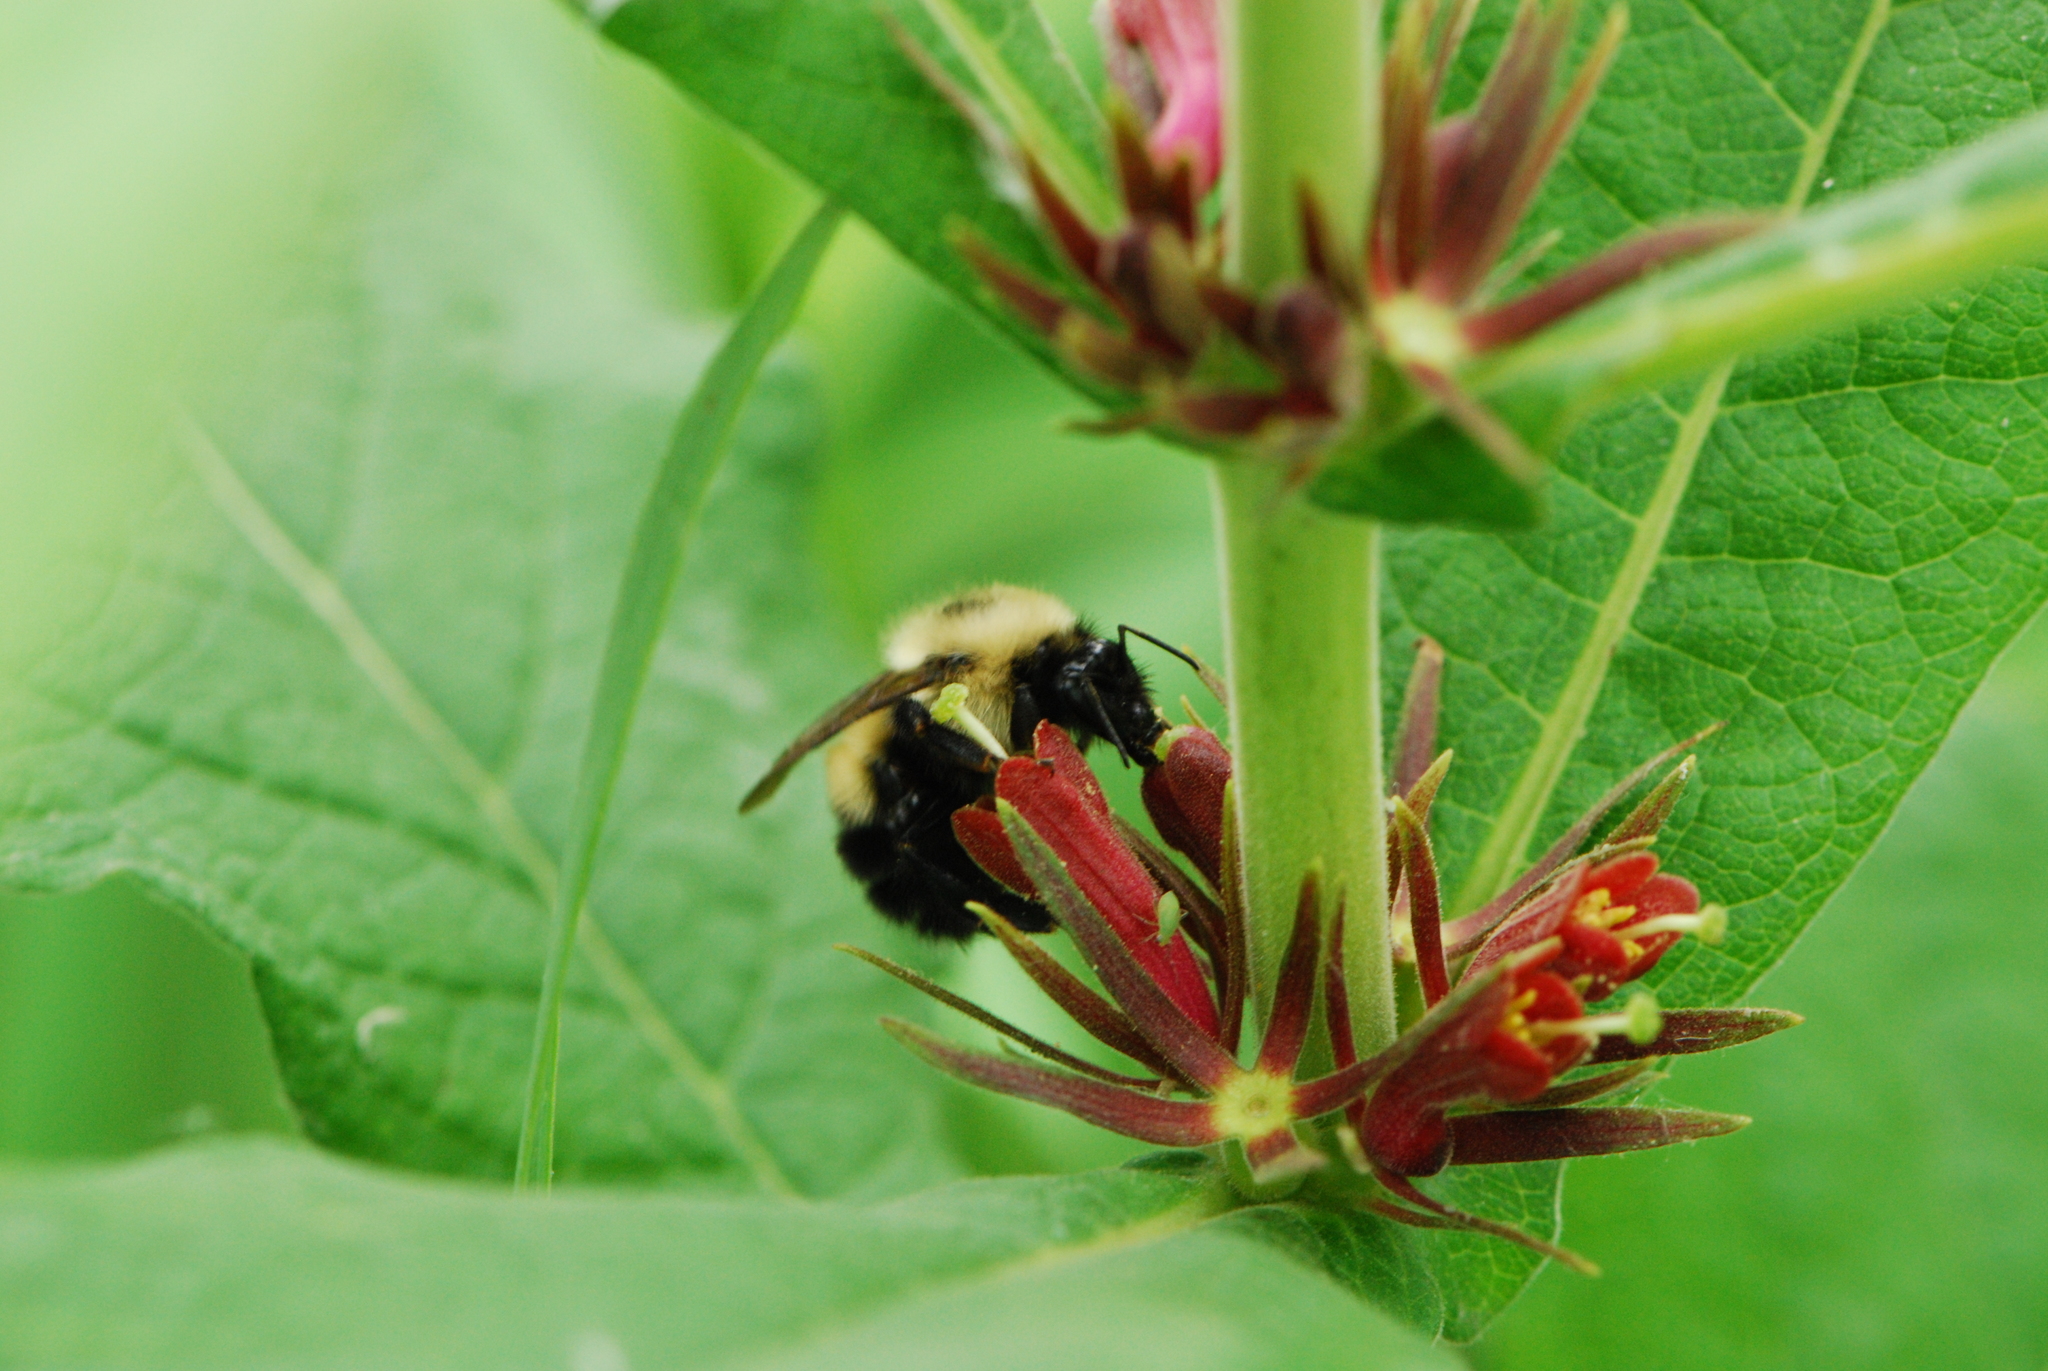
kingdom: Plantae
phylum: Tracheophyta
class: Magnoliopsida
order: Dipsacales
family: Caprifoliaceae
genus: Triosteum
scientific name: Triosteum aurantiacum
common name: Coffee tinker's-weed
